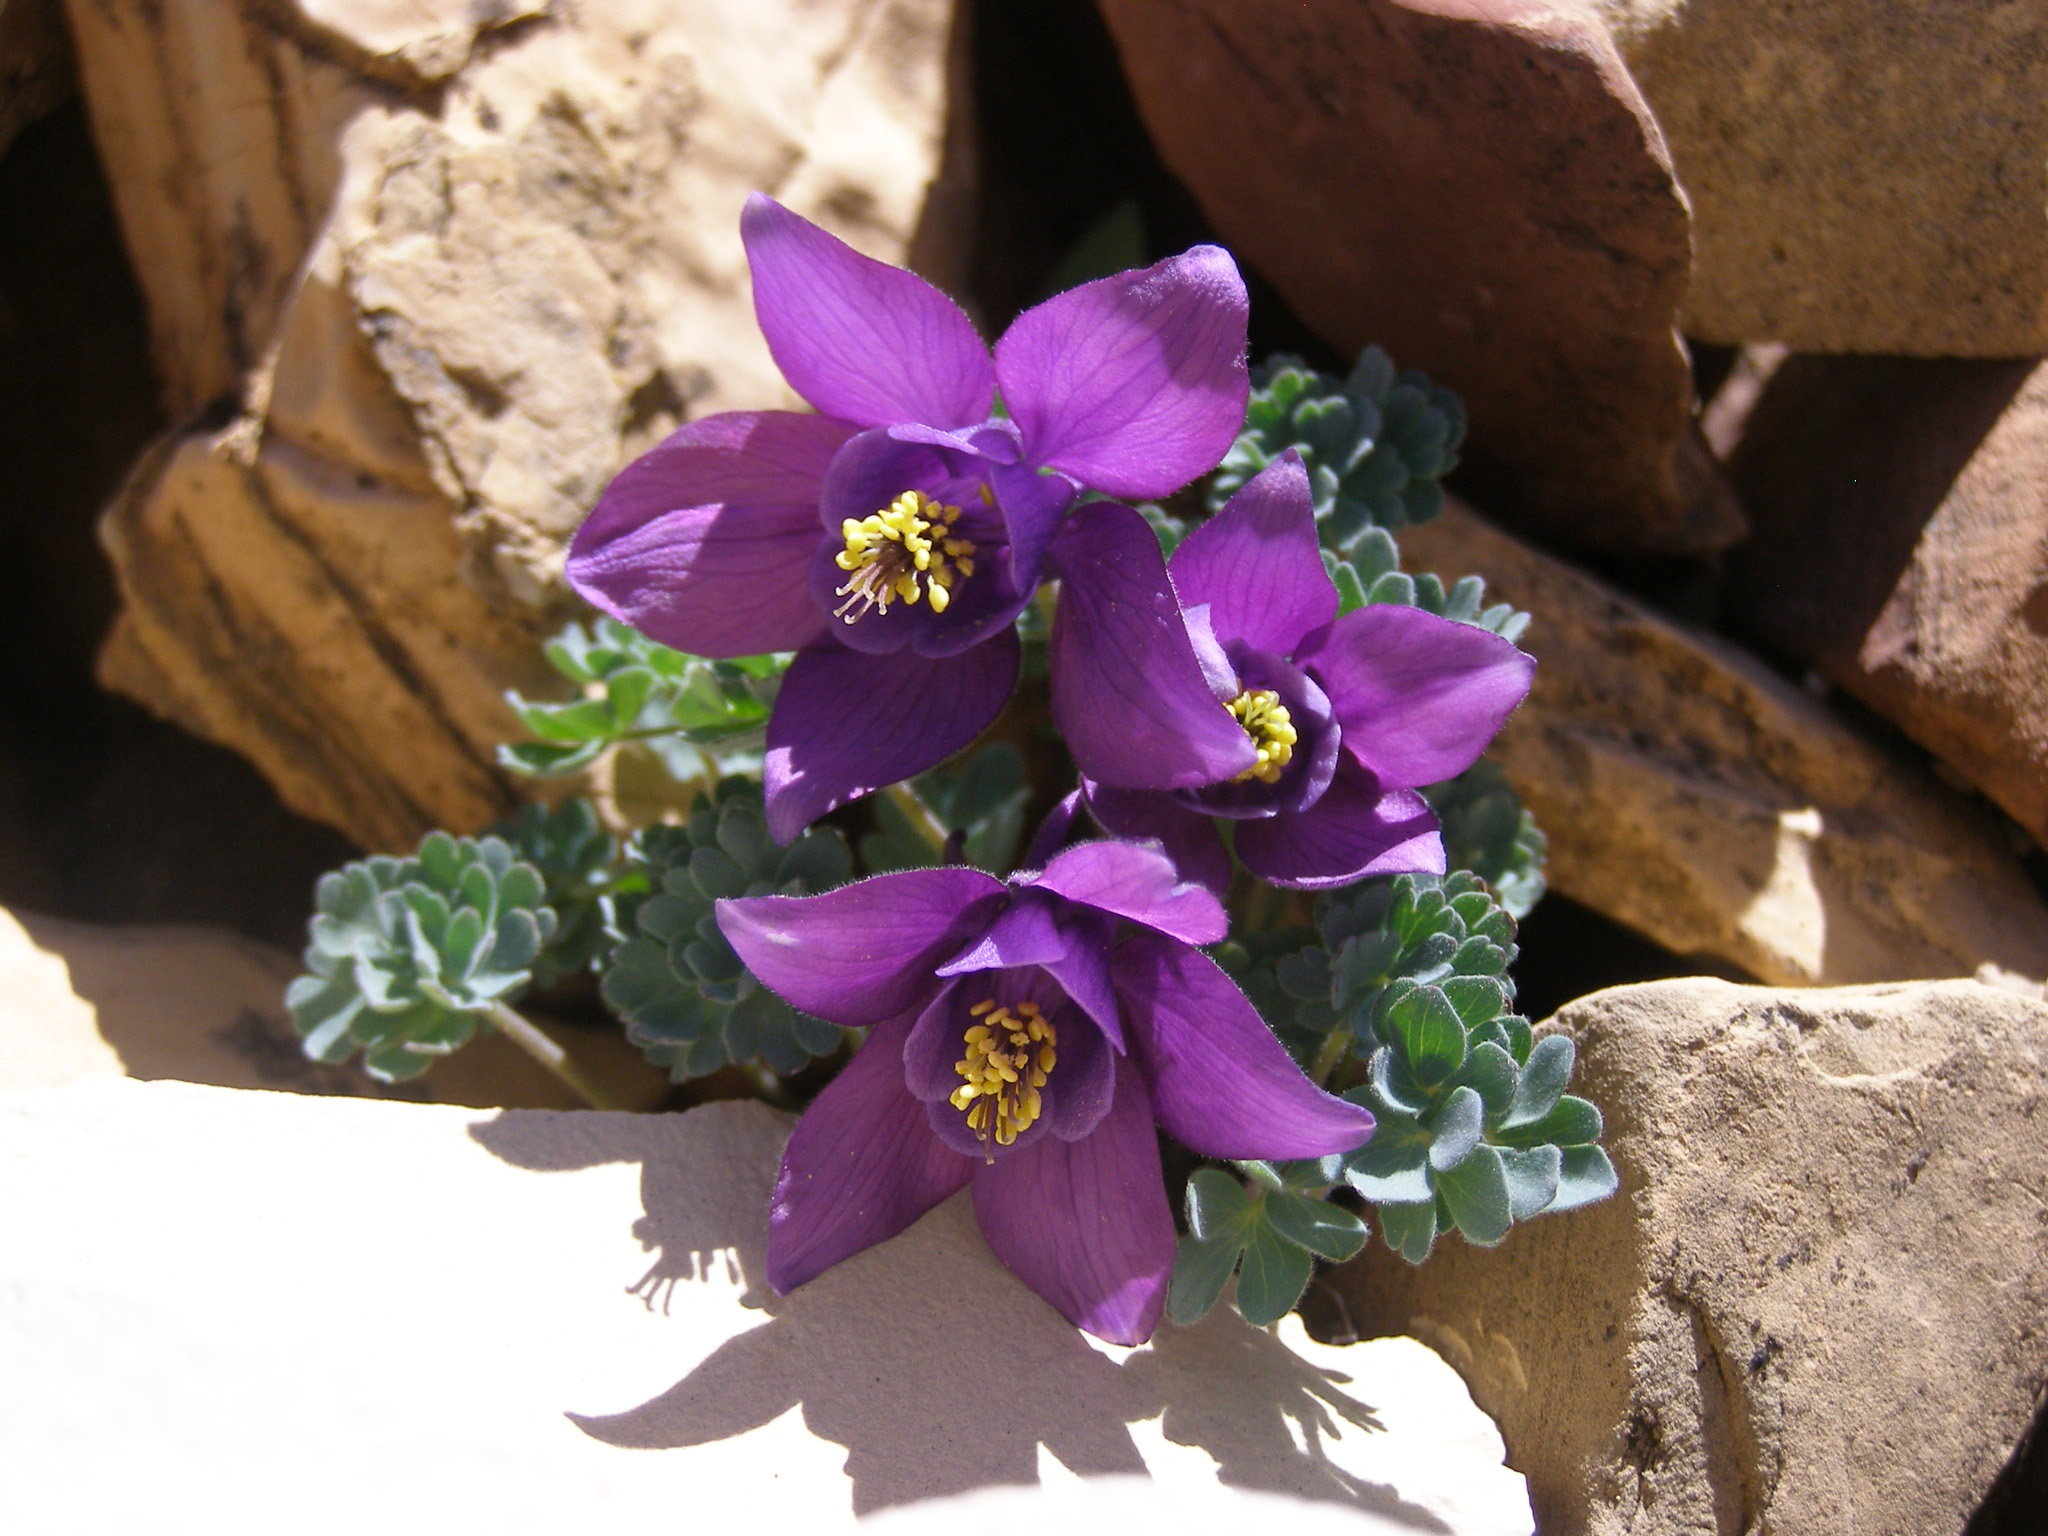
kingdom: Plantae
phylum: Tracheophyta
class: Magnoliopsida
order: Ranunculales
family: Ranunculaceae
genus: Aquilegia
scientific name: Aquilegia jonesii
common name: Jones' columbine
